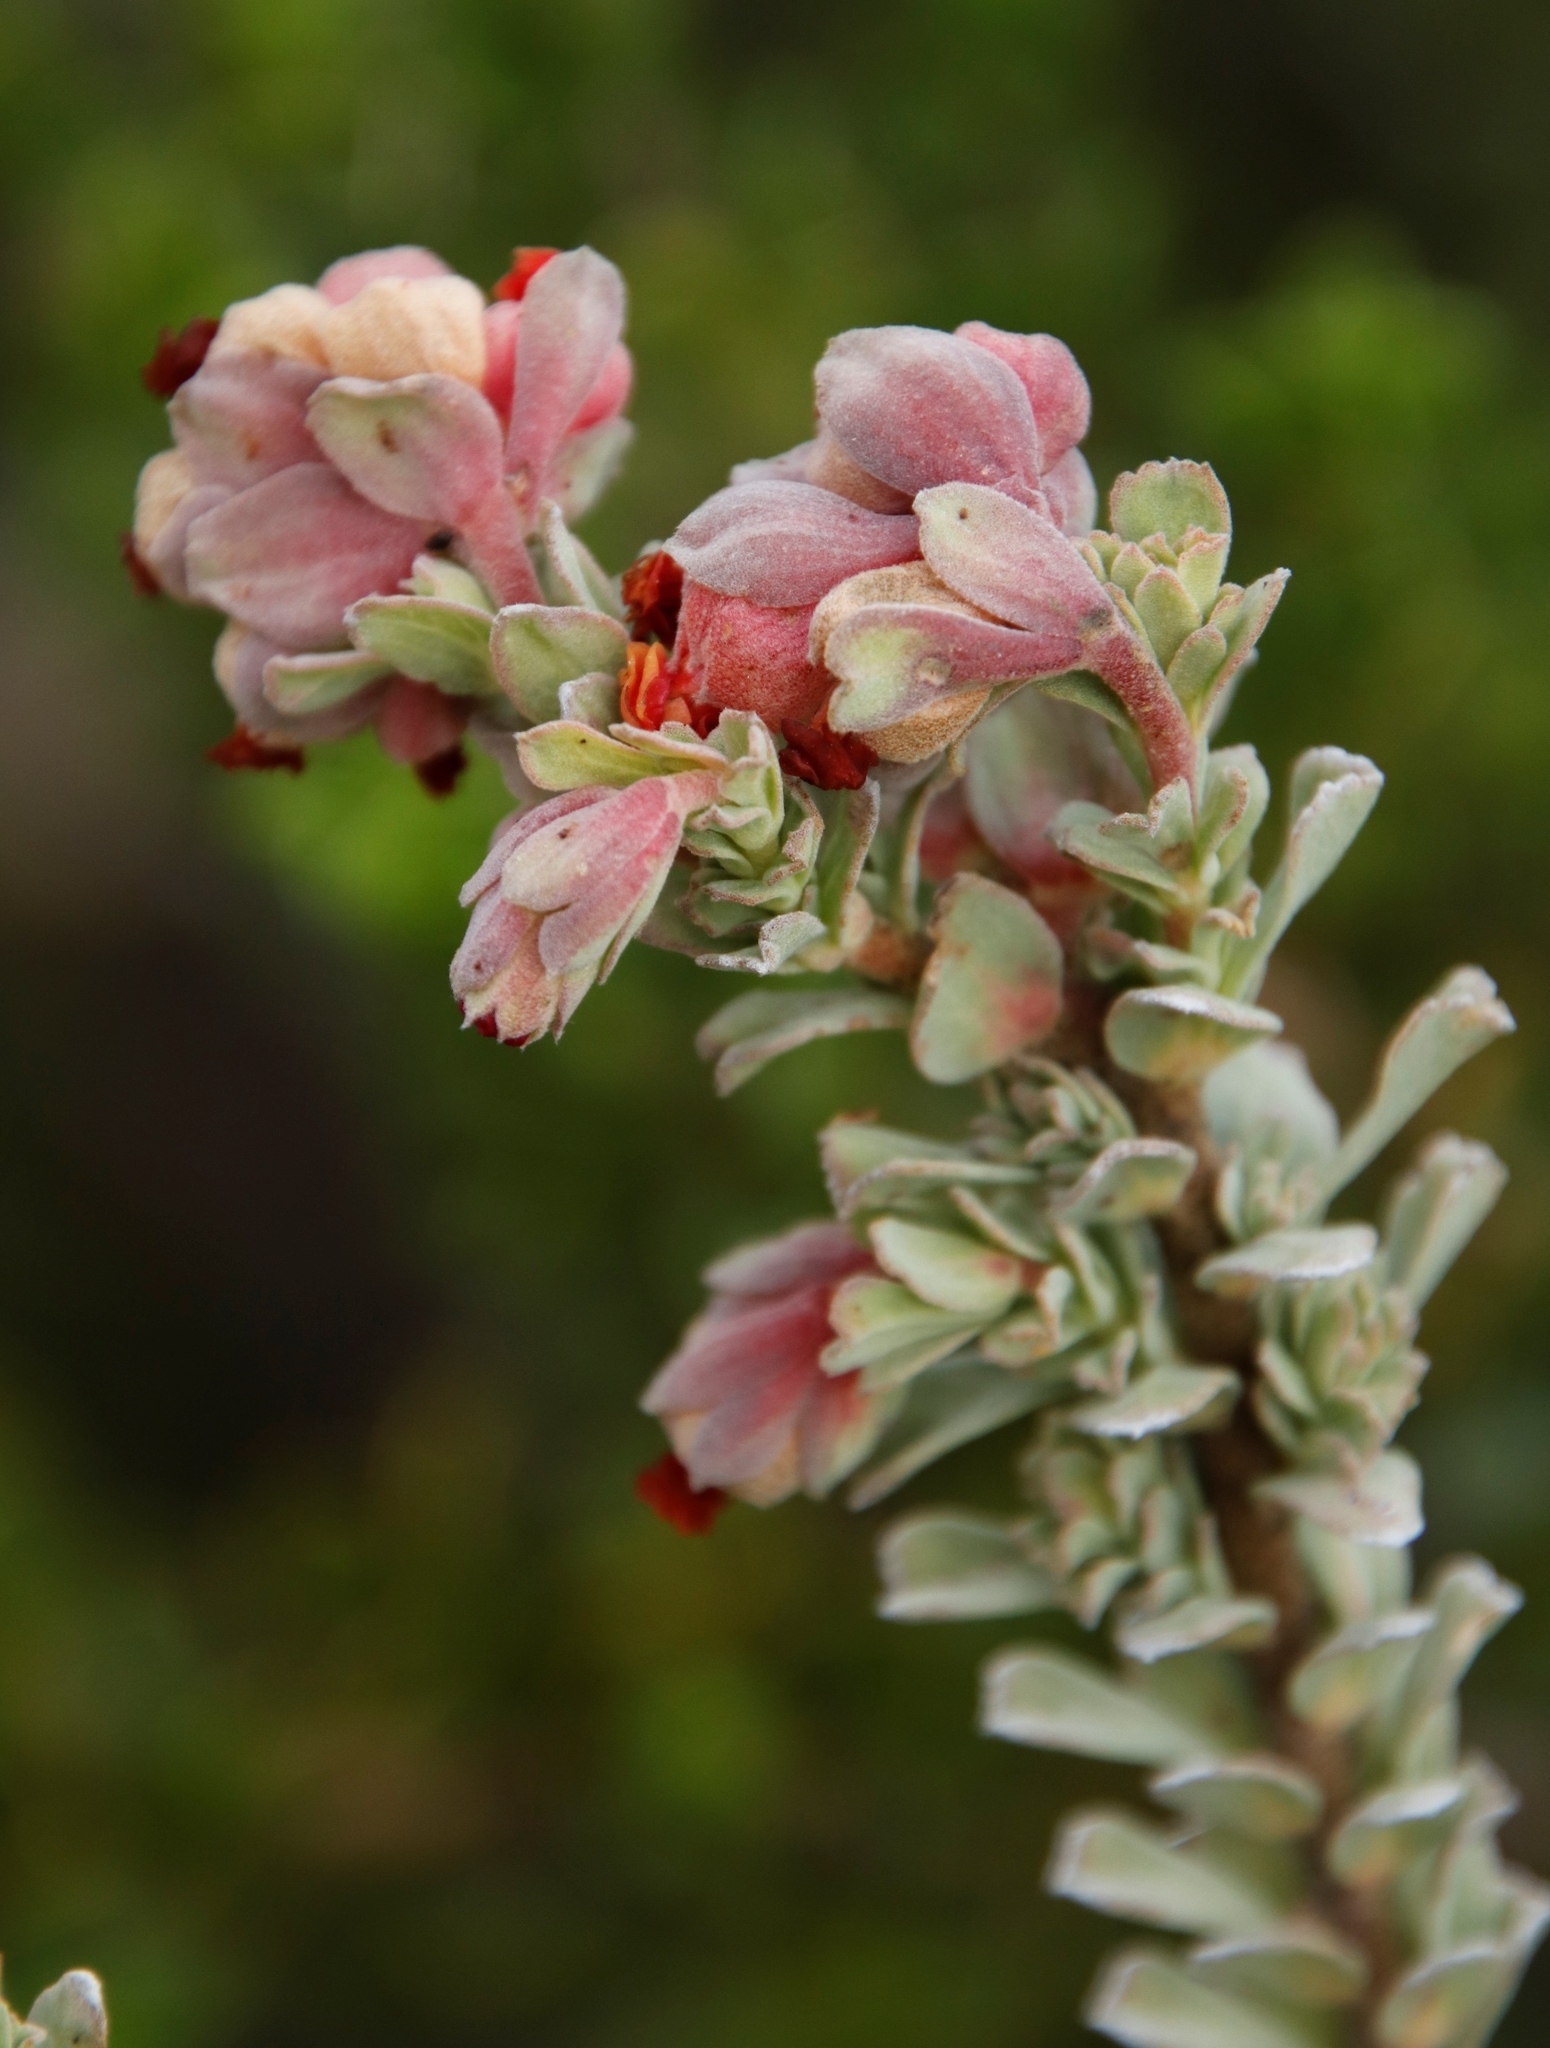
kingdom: Plantae
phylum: Tracheophyta
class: Magnoliopsida
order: Malvales
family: Malvaceae
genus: Hermannia
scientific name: Hermannia trifoliata
